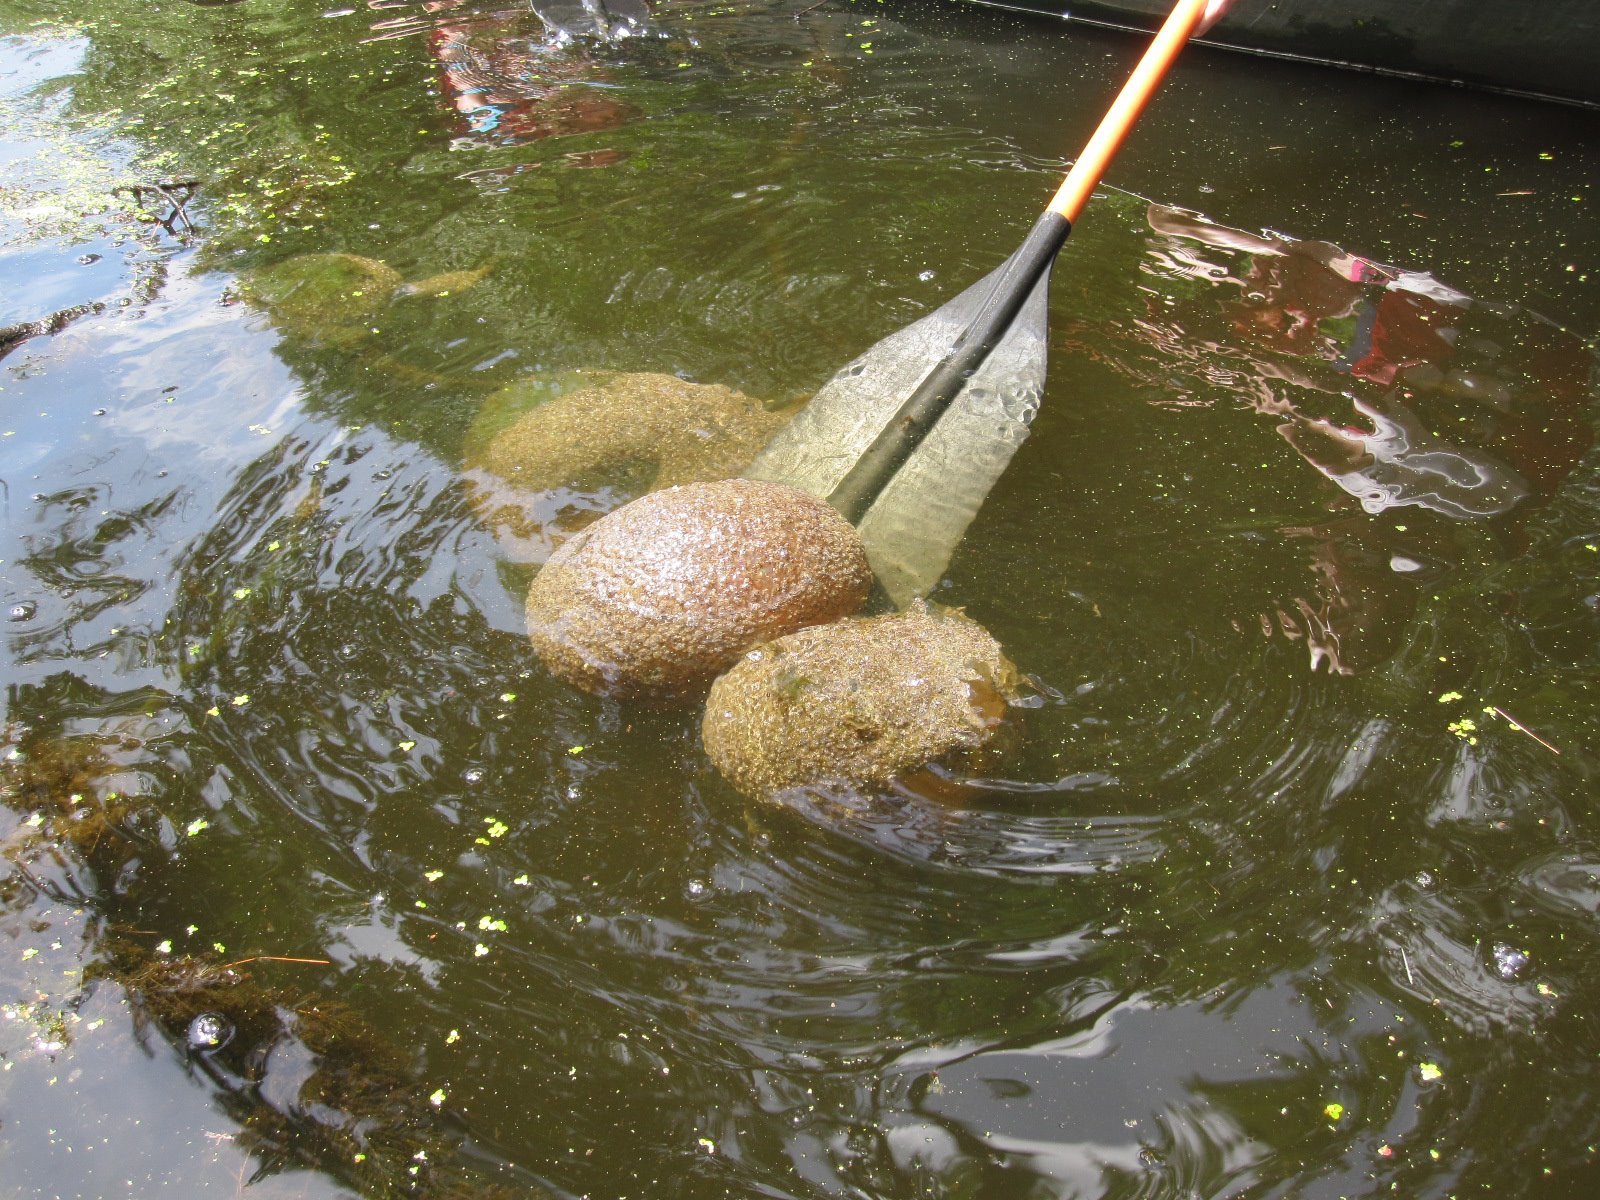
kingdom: Animalia
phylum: Bryozoa
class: Phylactolaemata
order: Plumatellida
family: Pectinatellidae
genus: Pectinatella
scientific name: Pectinatella magnifica
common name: Magnificent bryozoan
